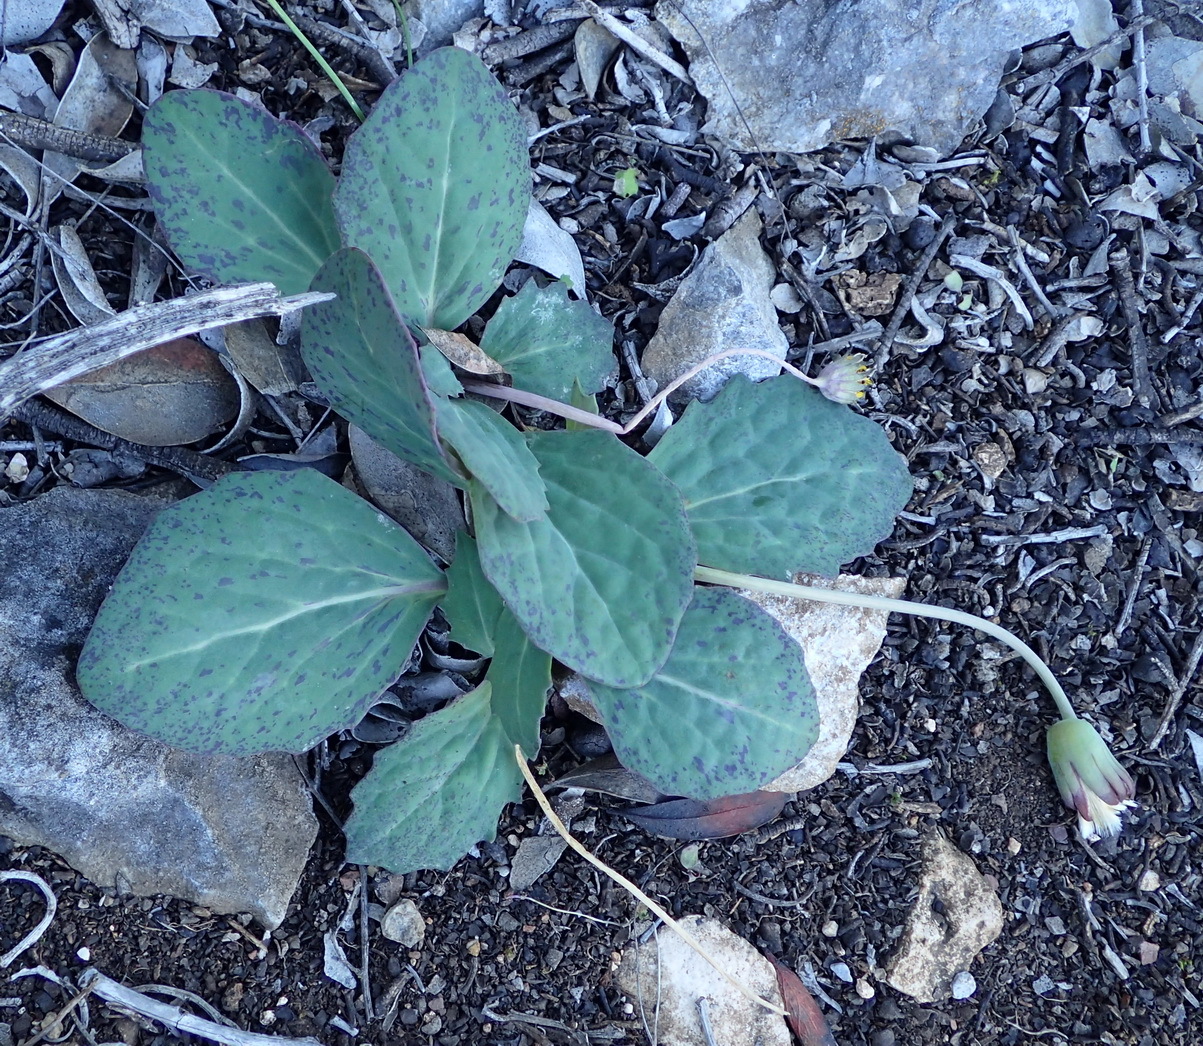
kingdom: Plantae
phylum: Tracheophyta
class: Magnoliopsida
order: Asterales
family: Asteraceae
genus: Othonna
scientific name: Othonna oleracea
